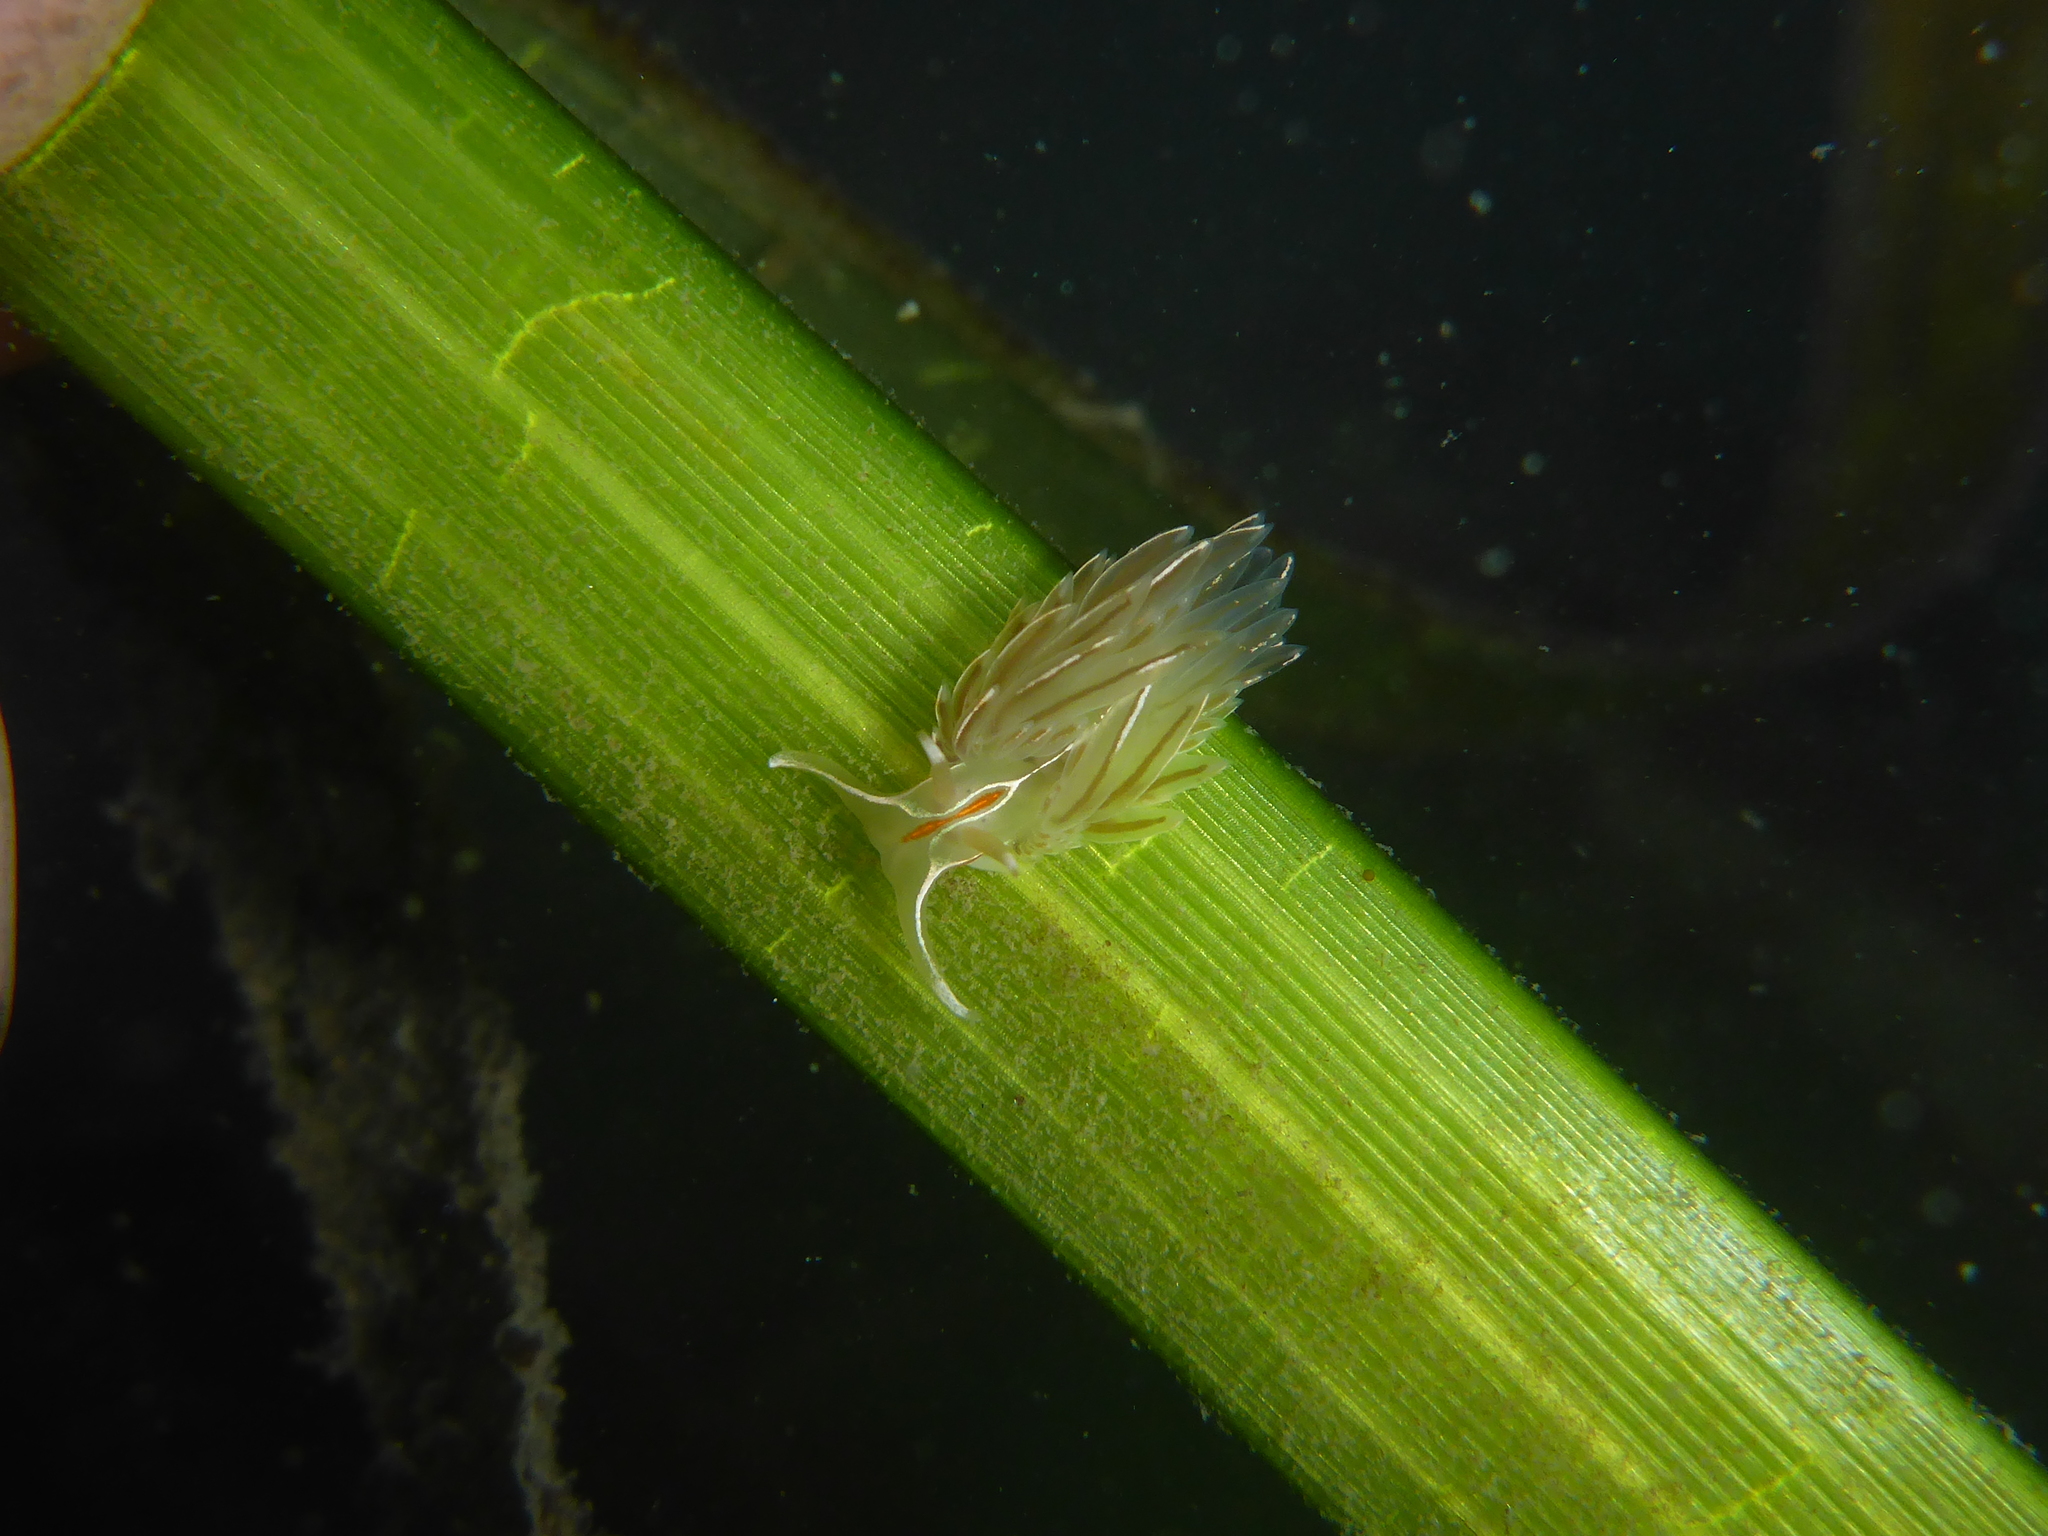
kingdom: Animalia
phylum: Mollusca
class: Gastropoda
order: Nudibranchia
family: Myrrhinidae
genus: Hermissenda
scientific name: Hermissenda crassicornis
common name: Hermissenda
